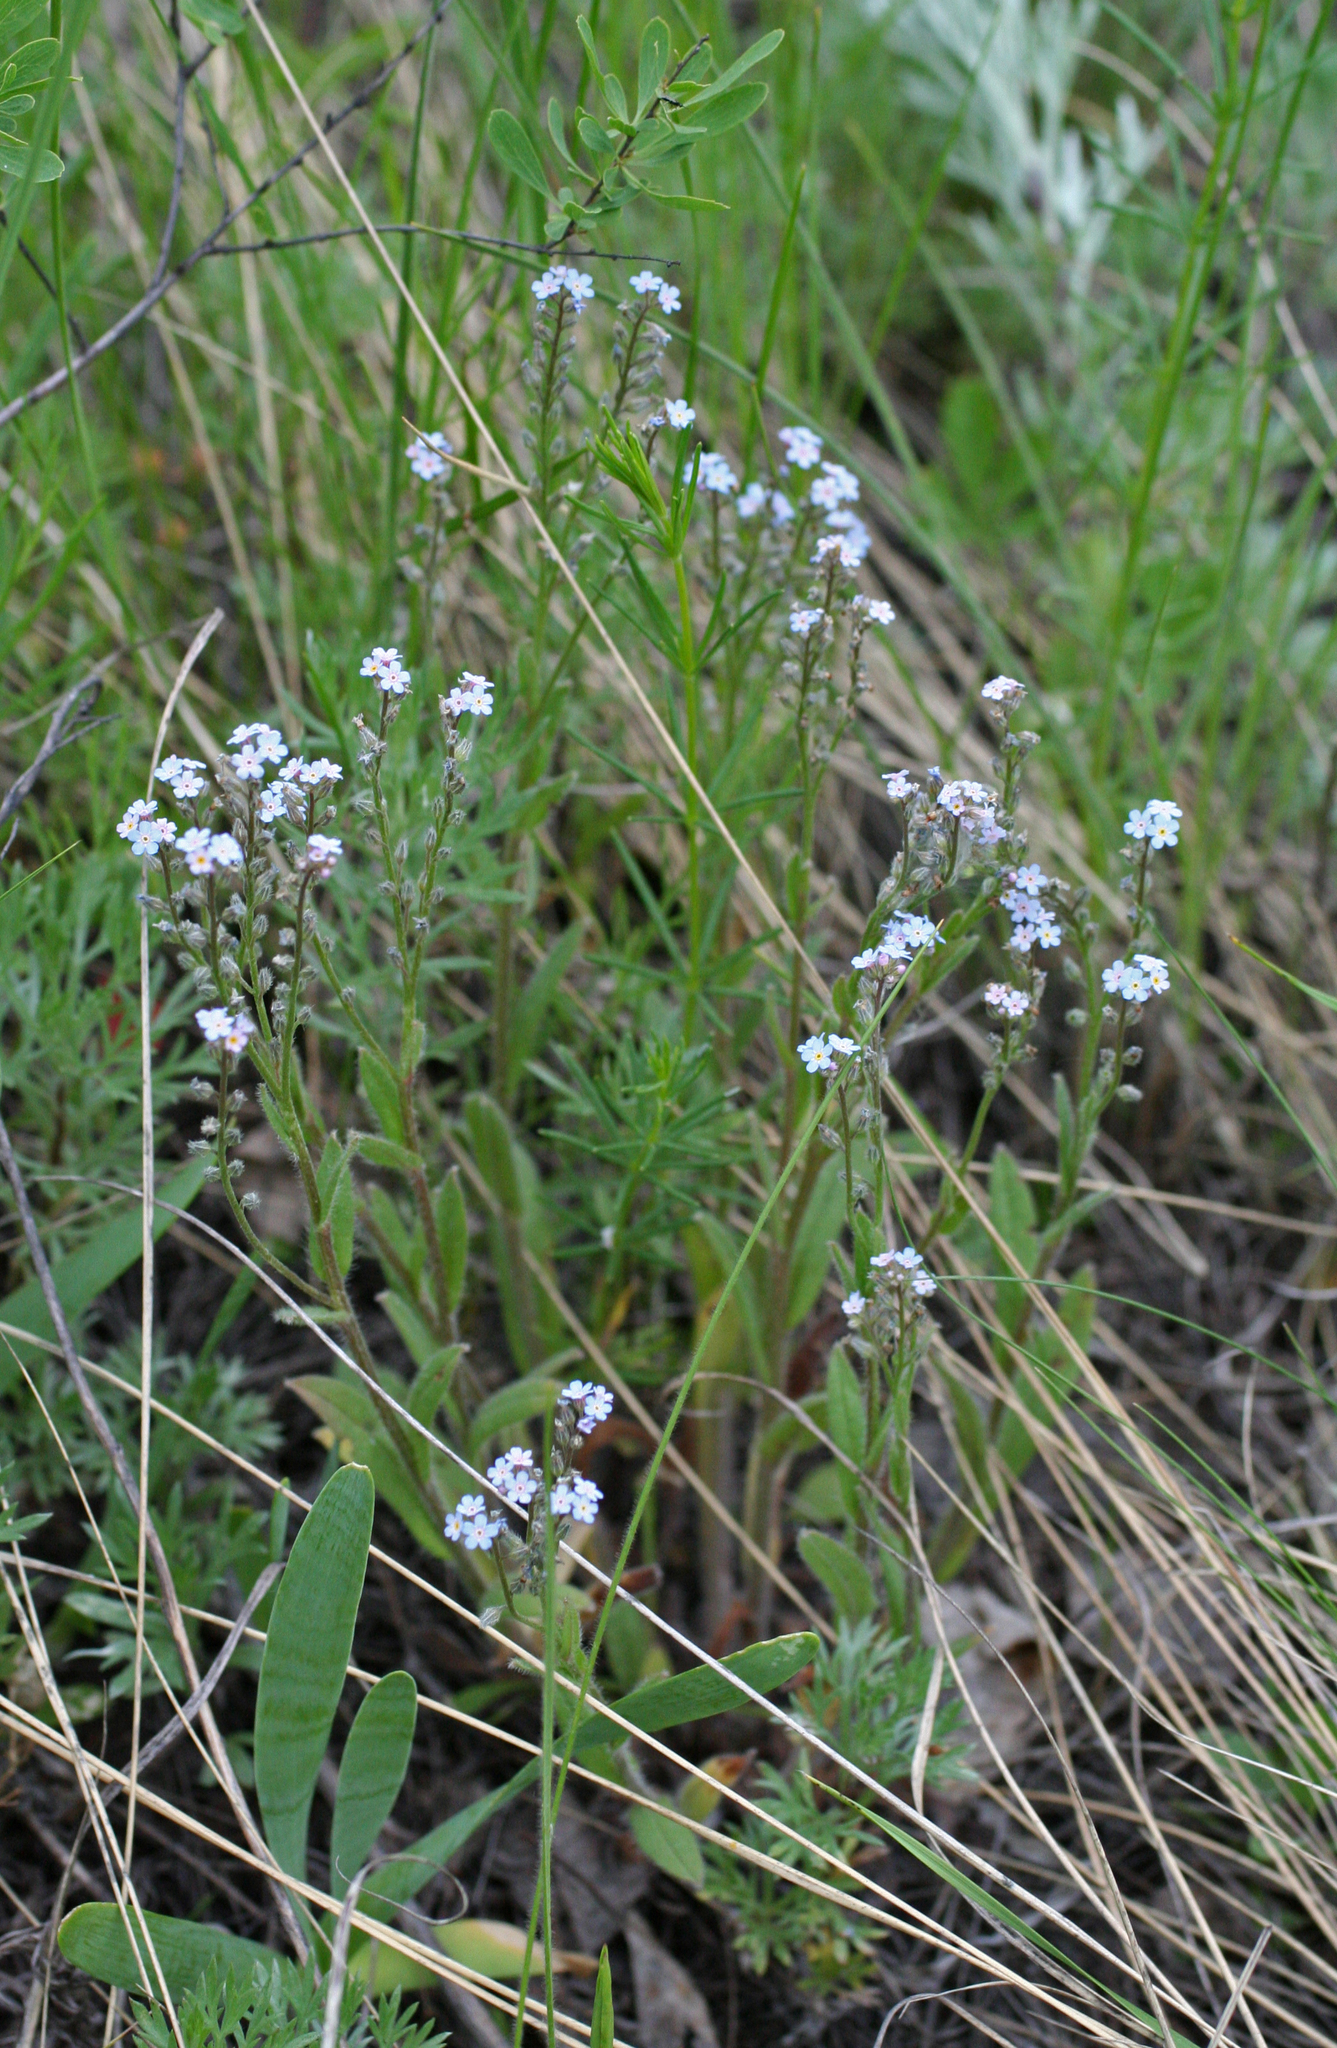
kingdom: Plantae
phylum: Tracheophyta
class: Magnoliopsida
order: Boraginales
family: Boraginaceae
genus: Myosotis
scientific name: Myosotis arvensis
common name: Field forget-me-not
